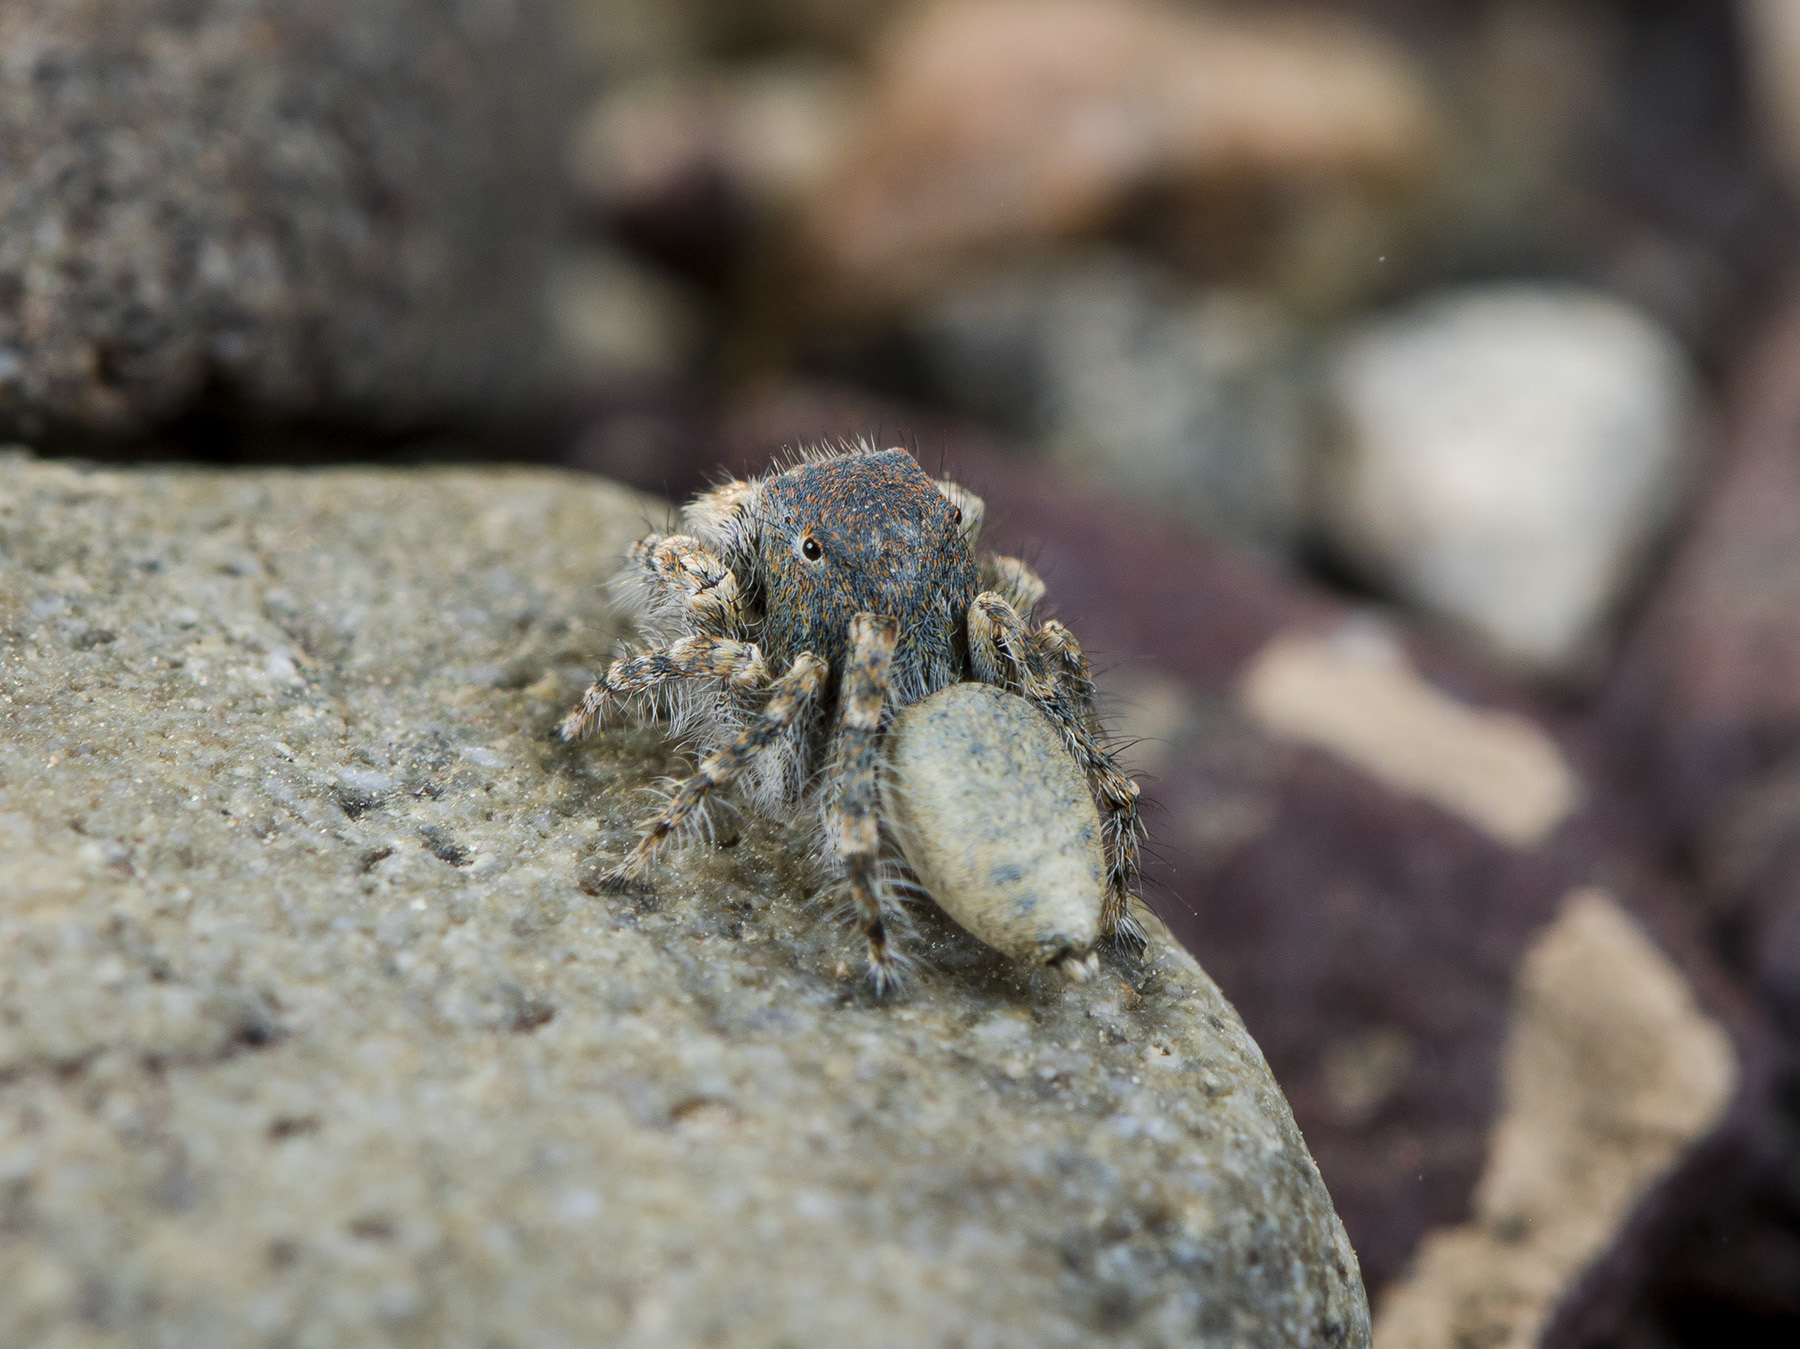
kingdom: Animalia
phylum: Arthropoda
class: Arachnida
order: Araneae
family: Salticidae
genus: Yllenus
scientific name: Yllenus zyuzini
